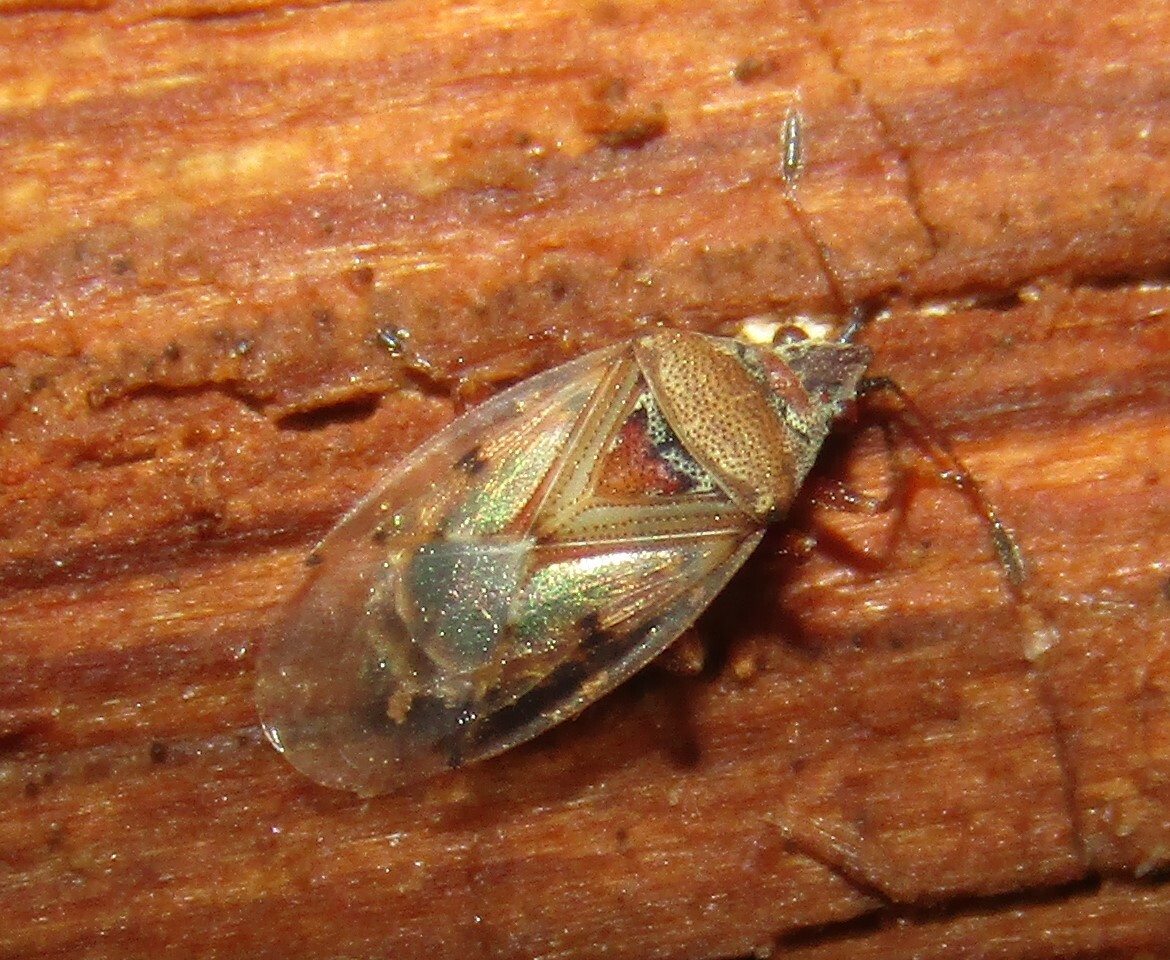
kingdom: Animalia
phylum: Arthropoda
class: Insecta
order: Hemiptera
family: Lygaeidae
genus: Kleidocerys
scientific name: Kleidocerys resedae
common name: Birch catkin bug
